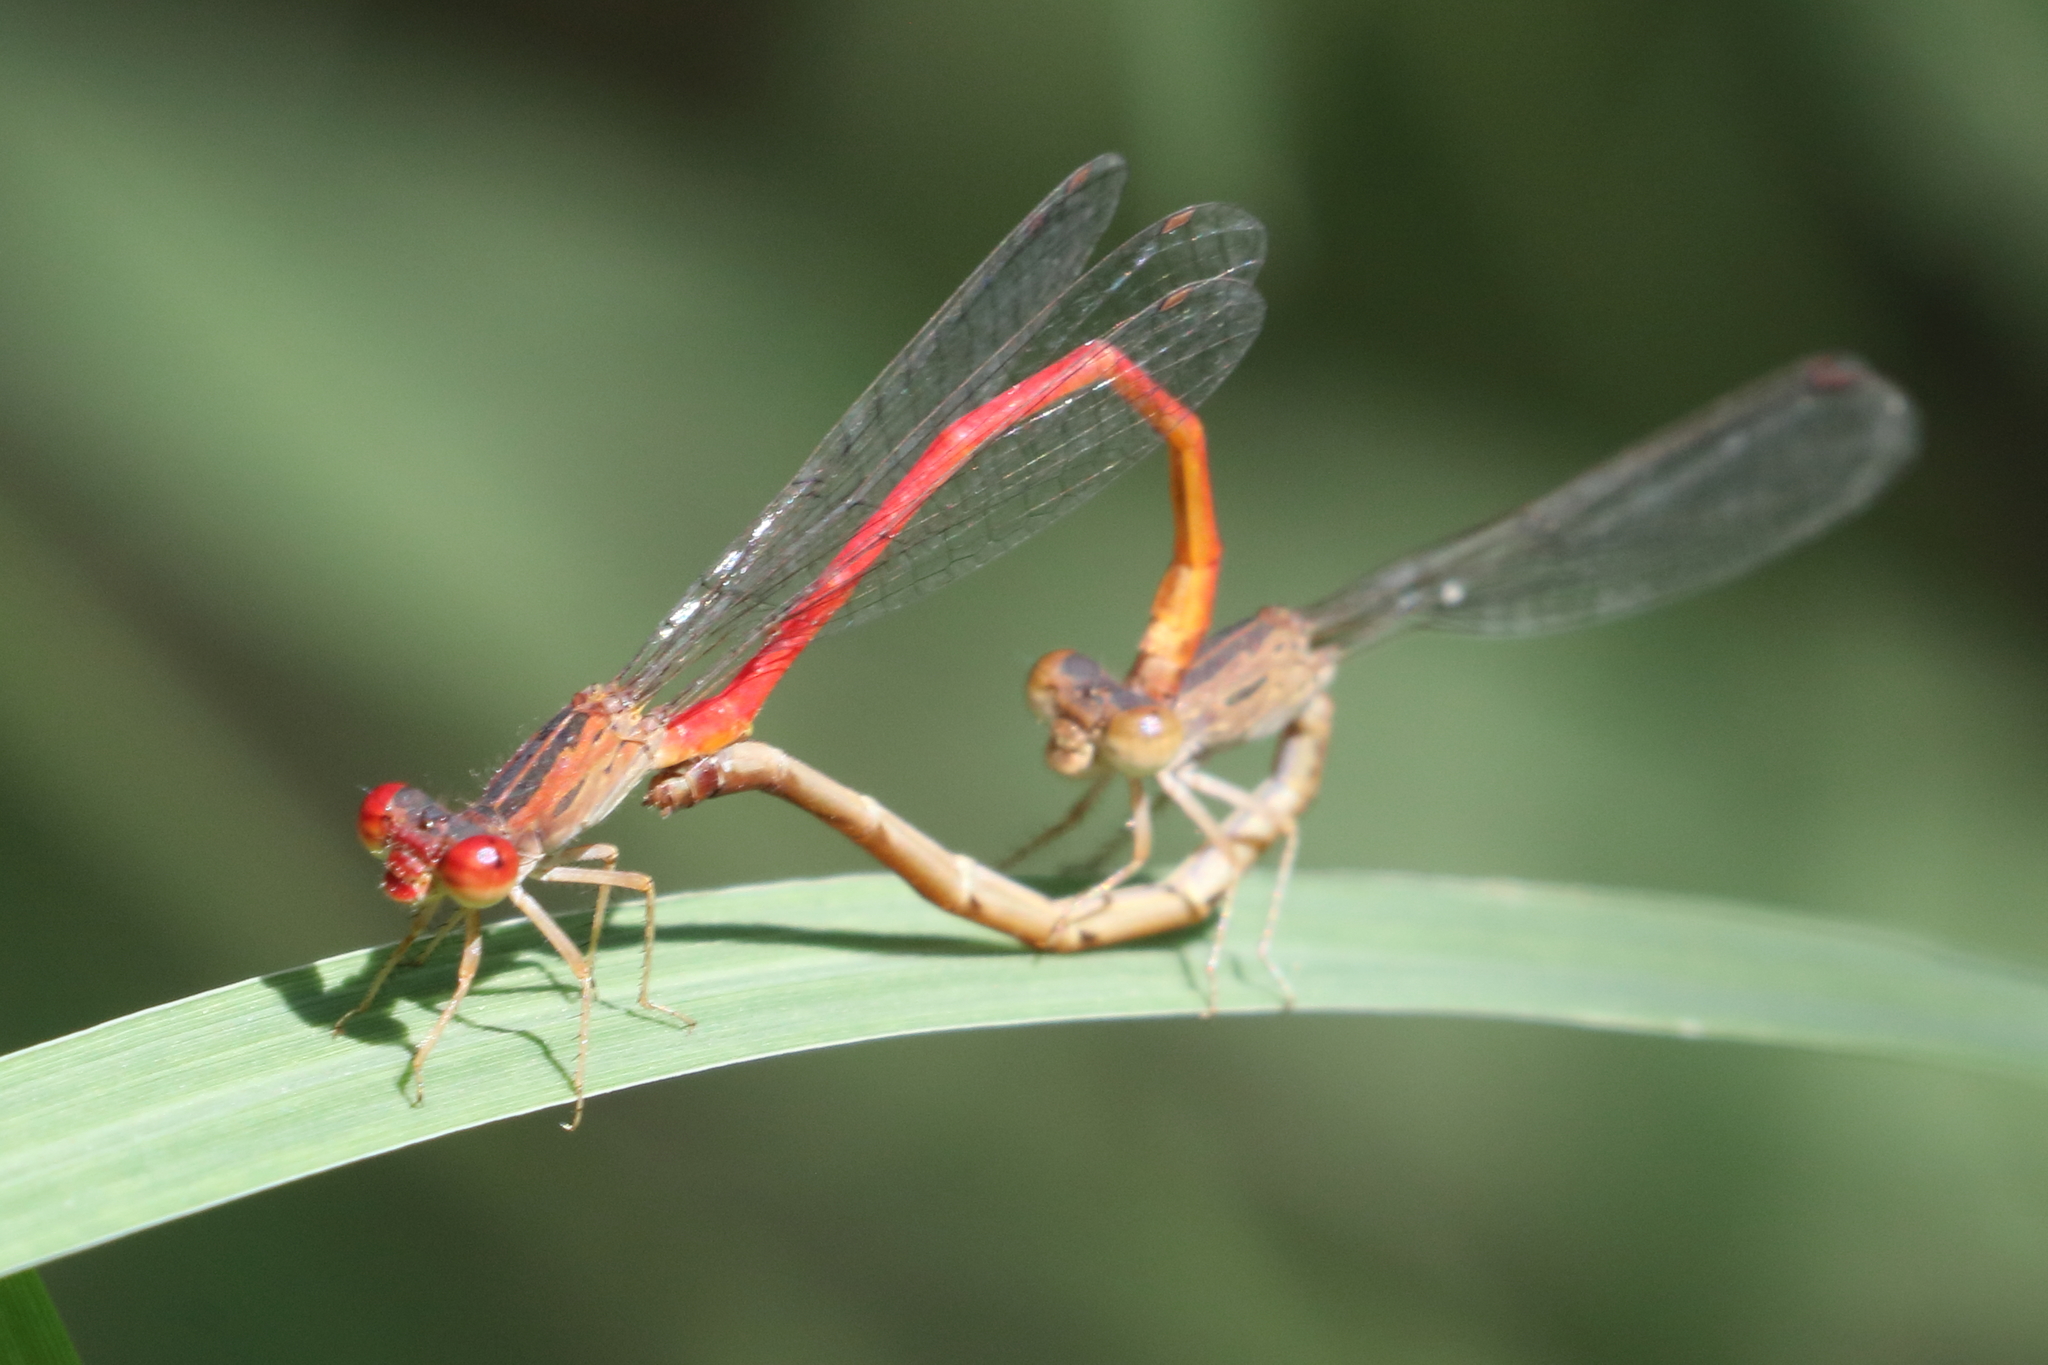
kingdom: Animalia
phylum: Arthropoda
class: Insecta
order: Odonata
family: Coenagrionidae
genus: Telebasis
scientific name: Telebasis salva
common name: Desert firetail
